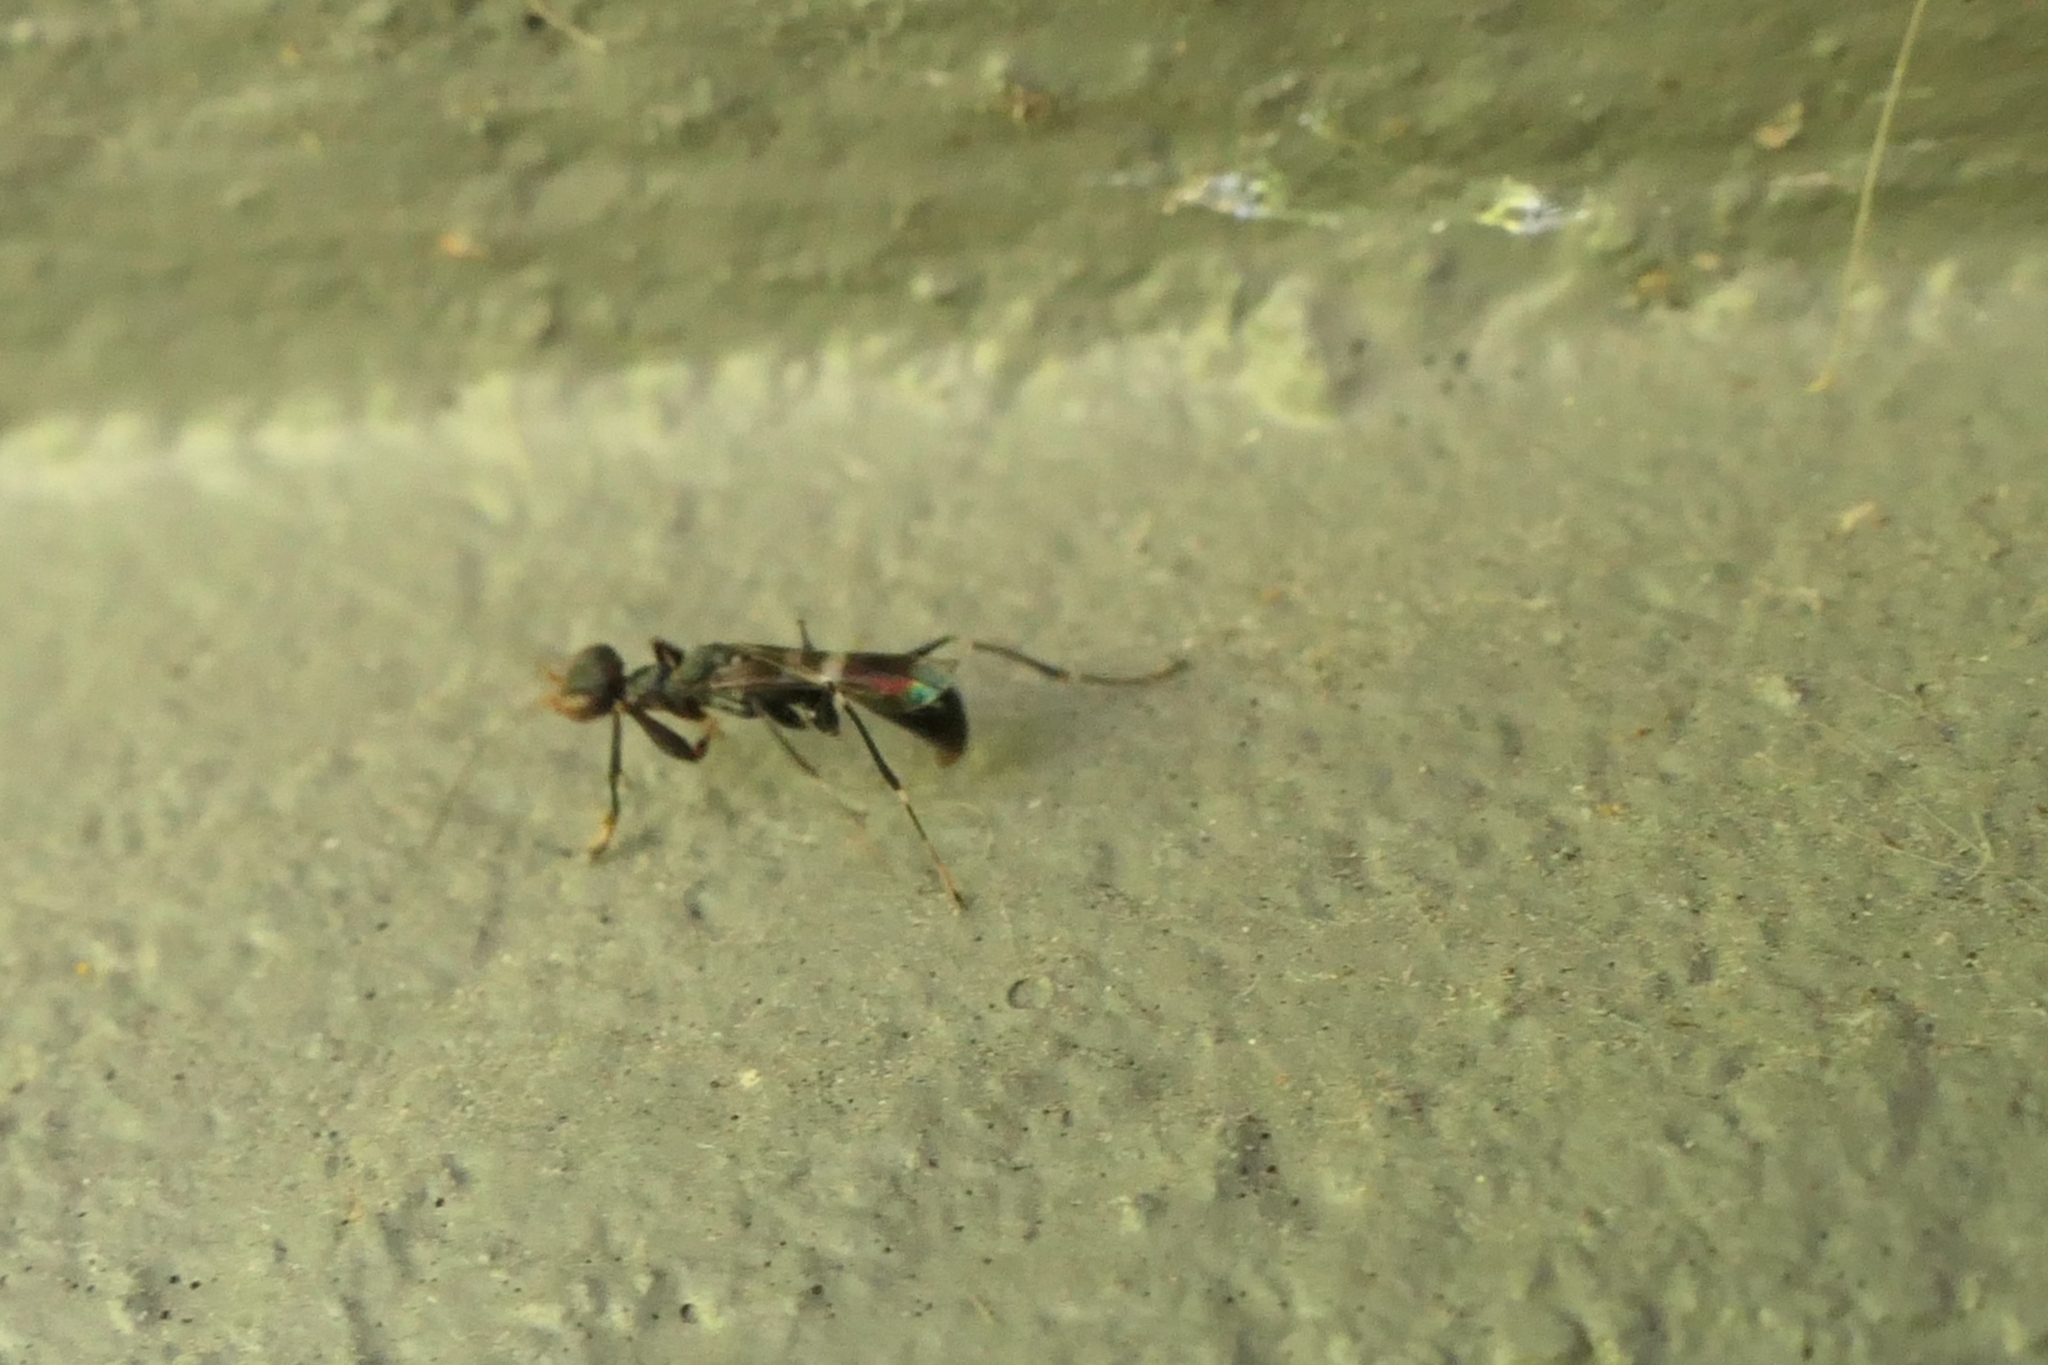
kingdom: Animalia
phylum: Arthropoda
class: Insecta
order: Hymenoptera
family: Dryinidae
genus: Dryinus
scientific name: Dryinus koebelei
